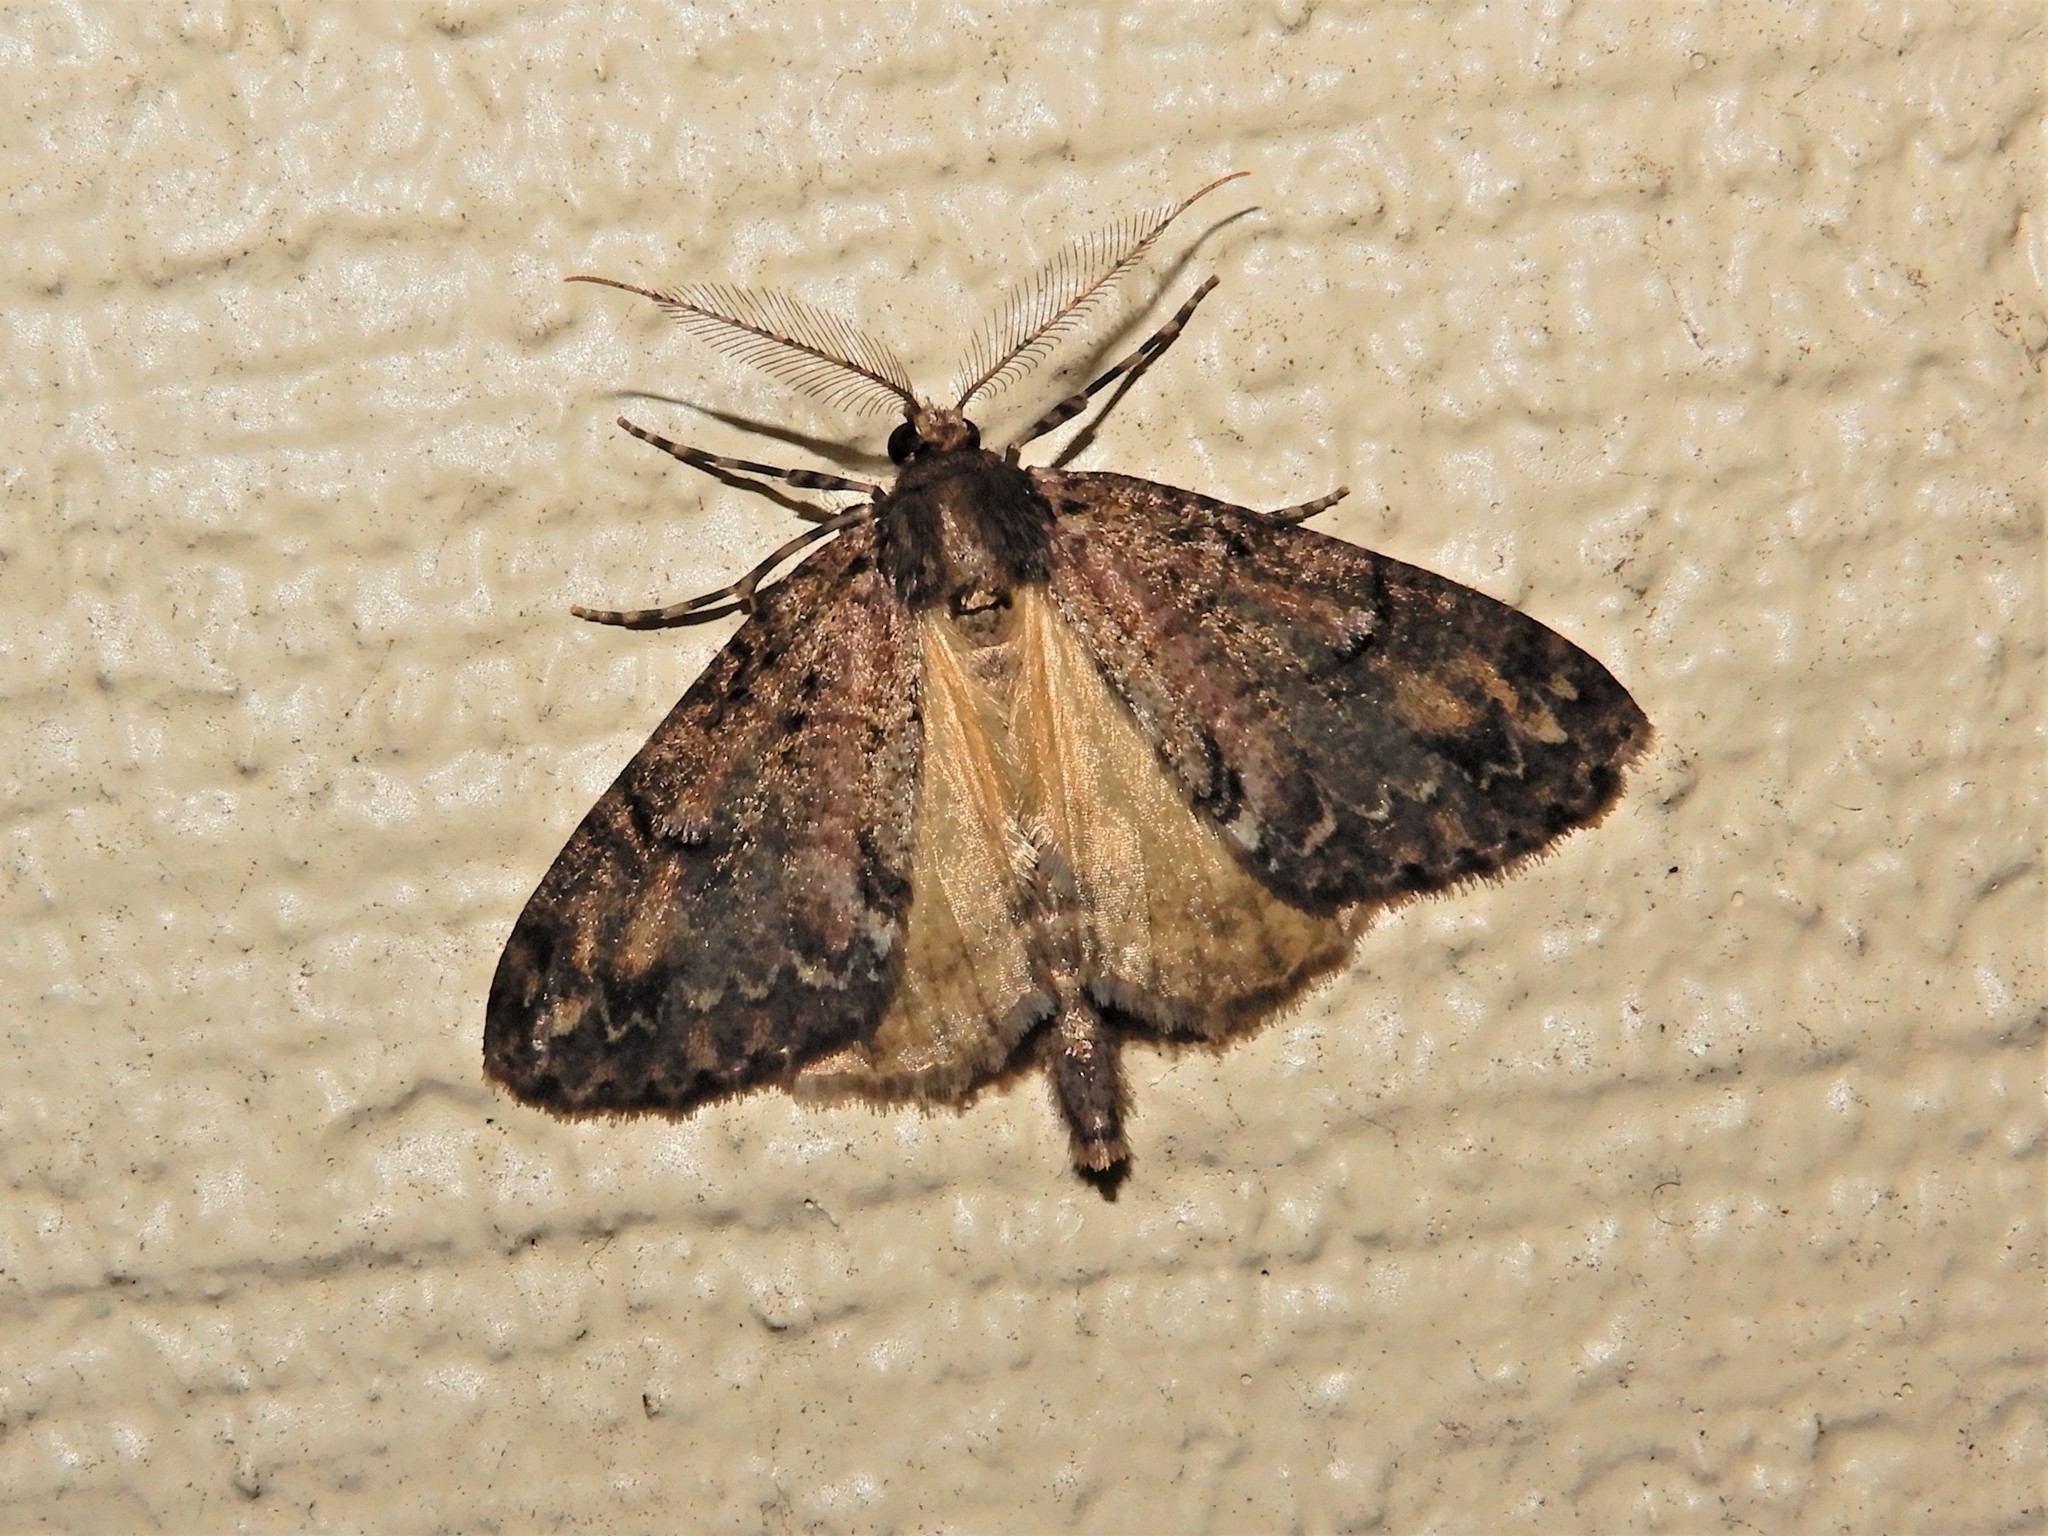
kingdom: Animalia
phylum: Arthropoda
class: Insecta
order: Lepidoptera
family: Geometridae
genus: Pseudocoremia
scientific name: Pseudocoremia suavis
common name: Common forest looper
